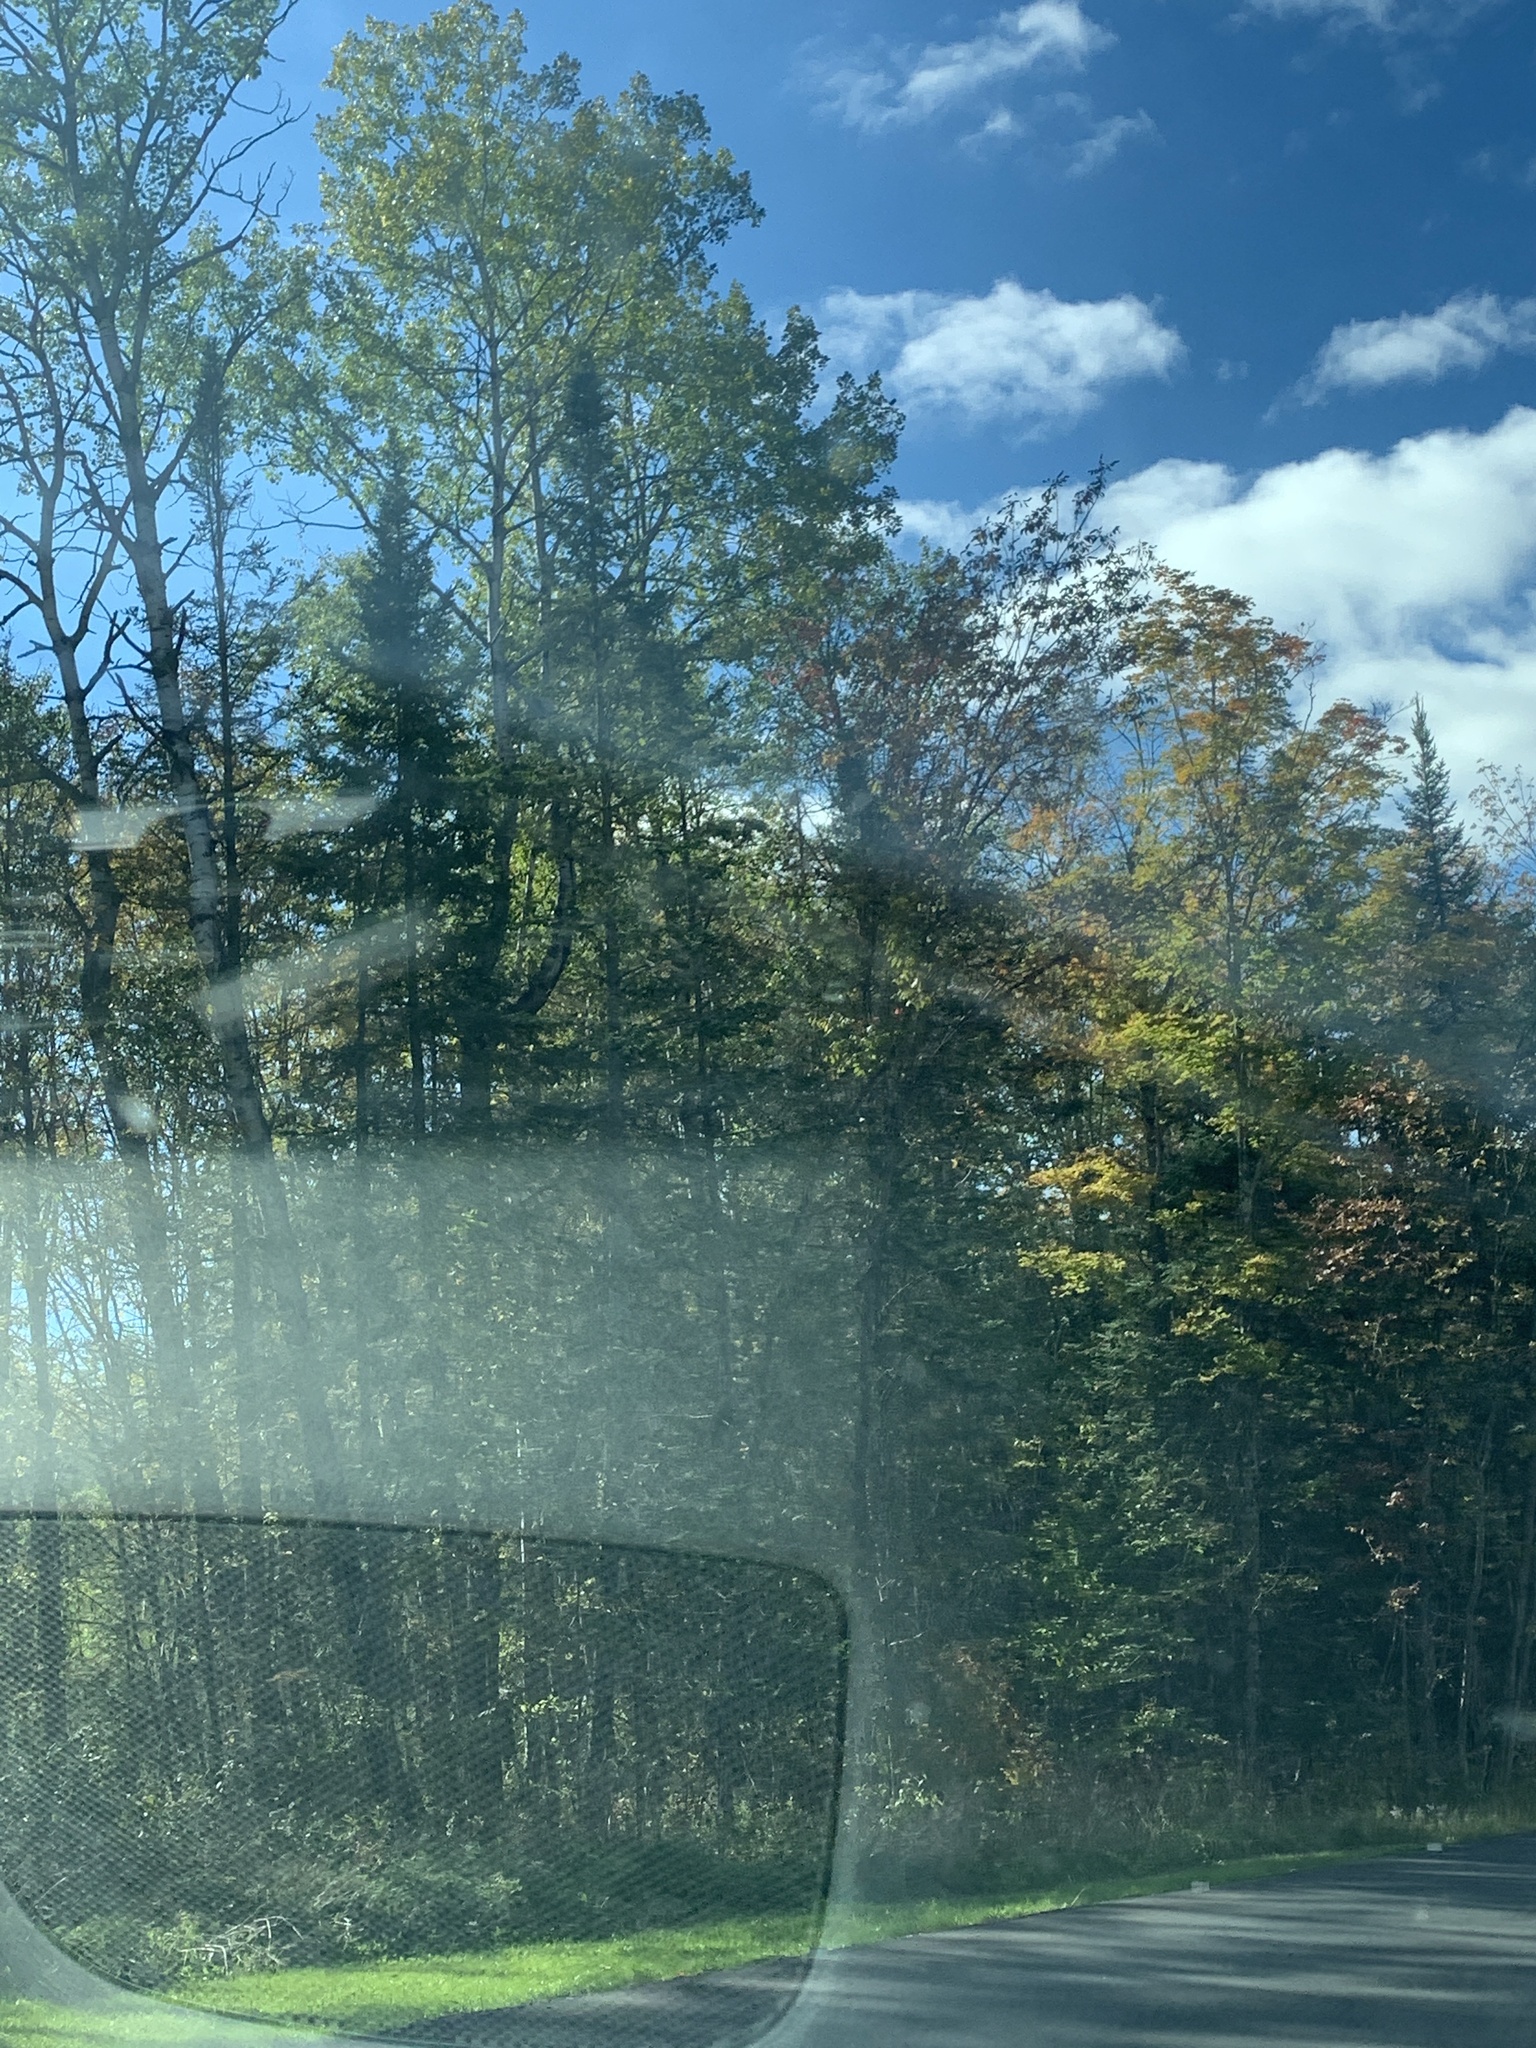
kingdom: Plantae
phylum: Tracheophyta
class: Pinopsida
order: Pinales
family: Pinaceae
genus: Abies
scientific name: Abies balsamea
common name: Balsam fir
